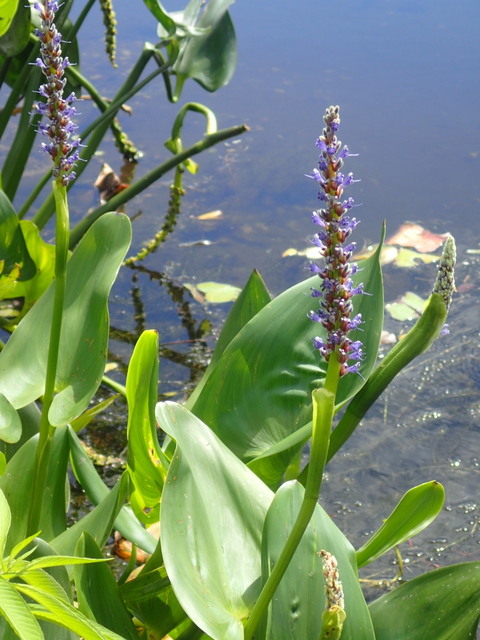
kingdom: Plantae
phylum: Tracheophyta
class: Liliopsida
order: Commelinales
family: Pontederiaceae
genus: Pontederia
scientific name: Pontederia cordata
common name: Pickerelweed
